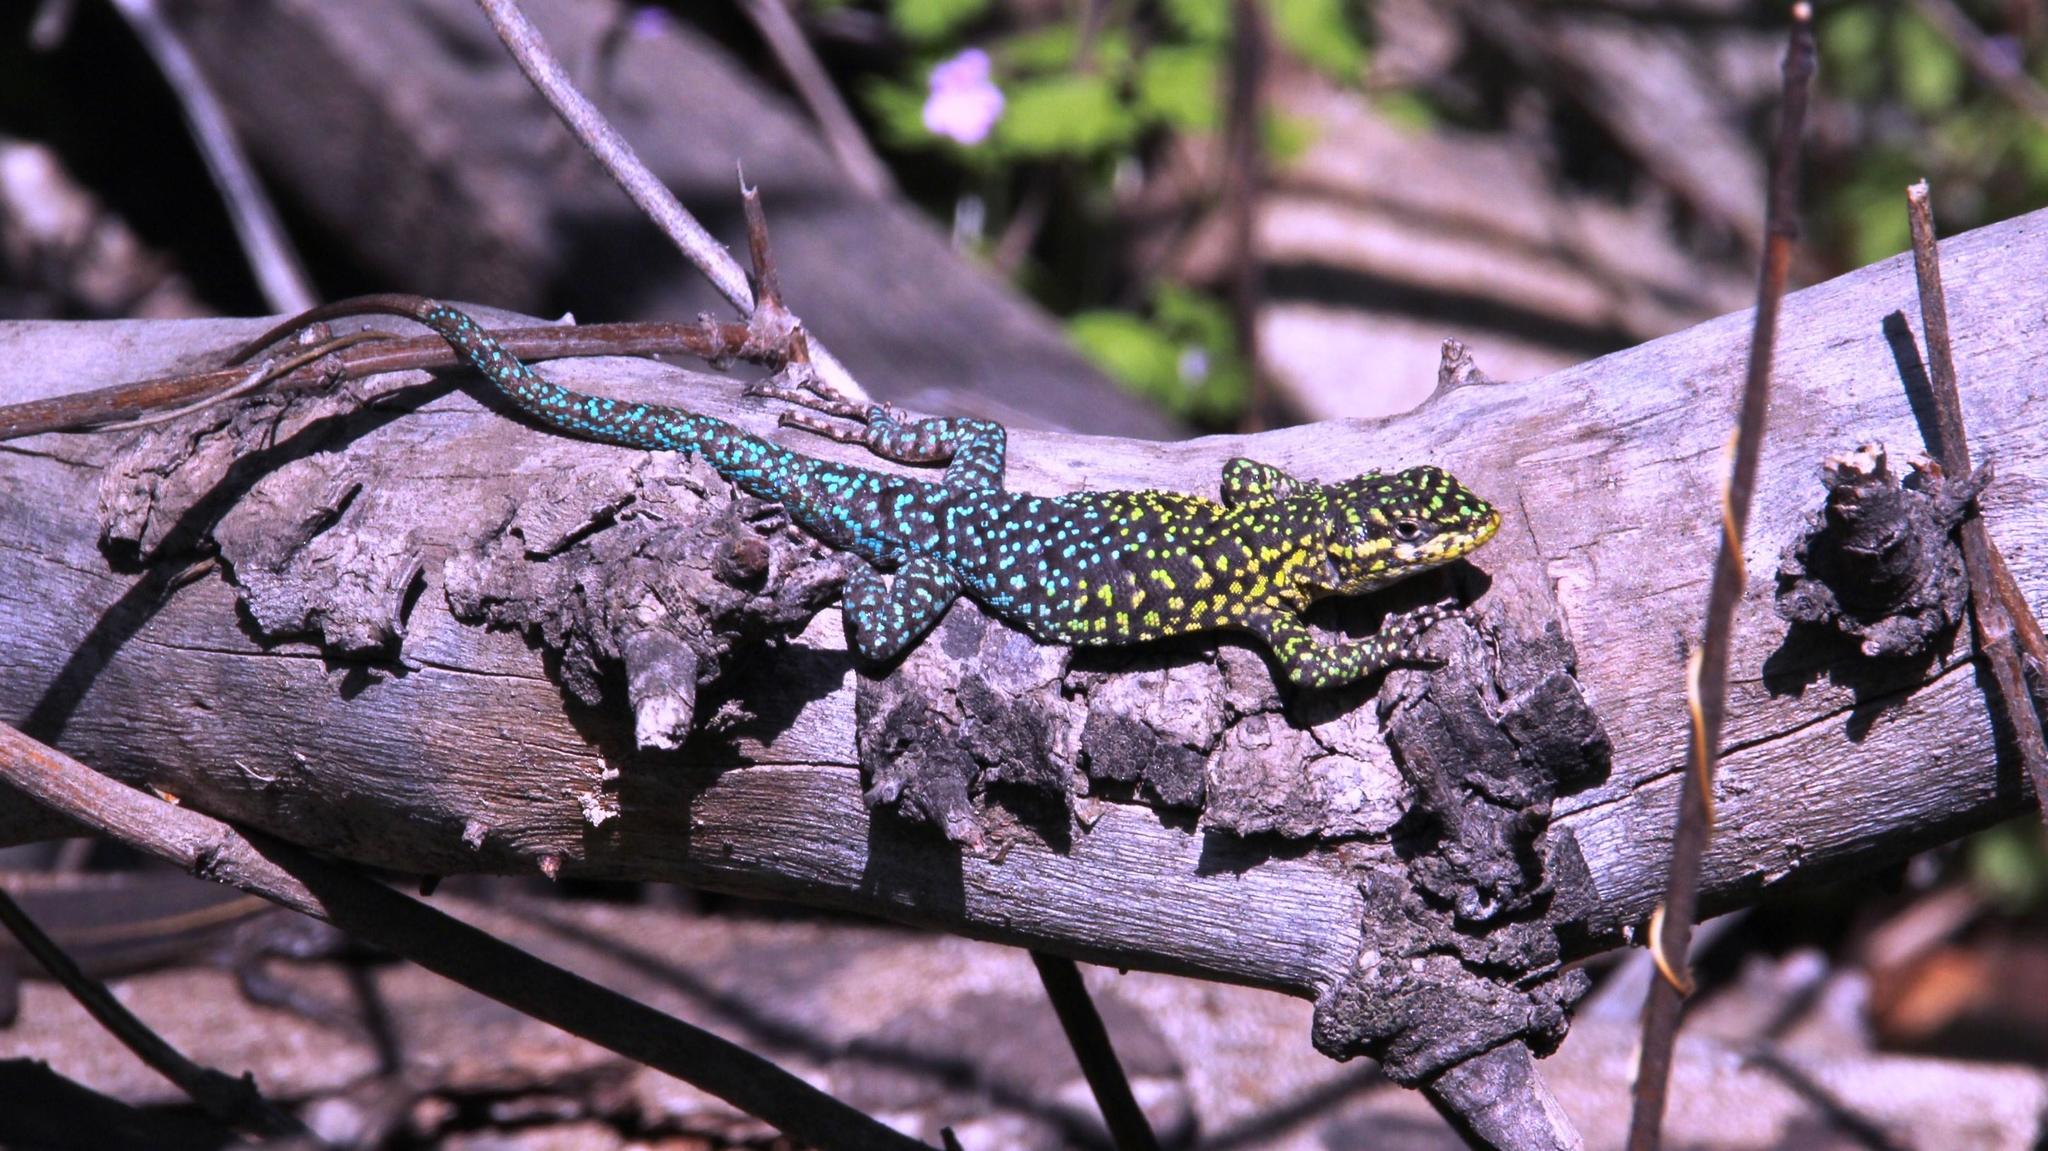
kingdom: Animalia
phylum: Chordata
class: Squamata
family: Liolaemidae
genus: Liolaemus
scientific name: Liolaemus tenuis
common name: Thin tree iguana
